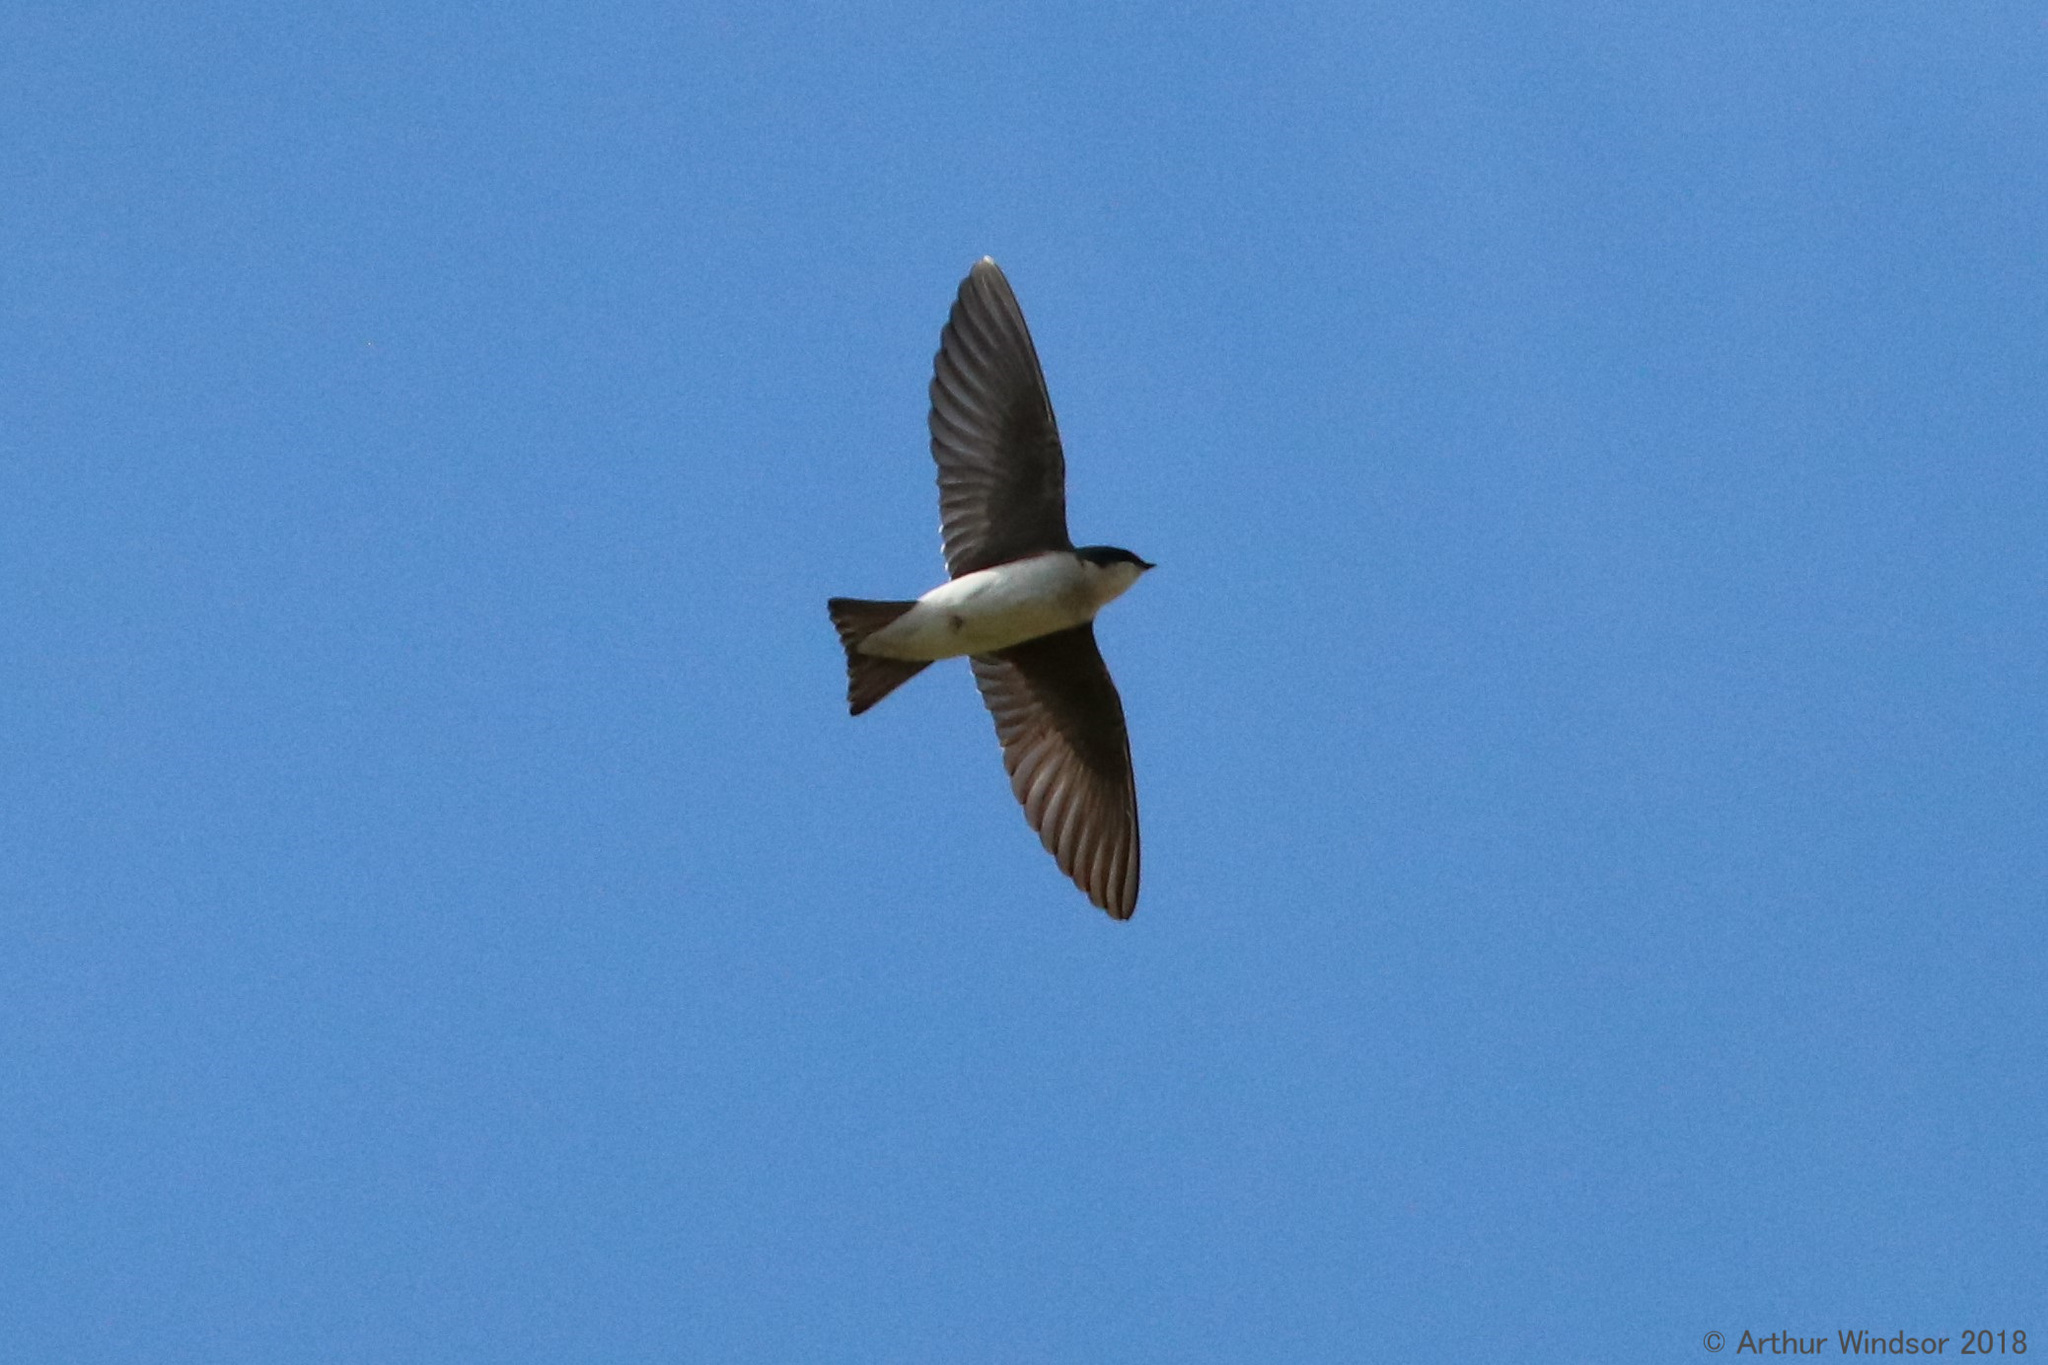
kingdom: Animalia
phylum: Chordata
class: Aves
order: Passeriformes
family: Hirundinidae
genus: Tachycineta
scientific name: Tachycineta bicolor
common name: Tree swallow
